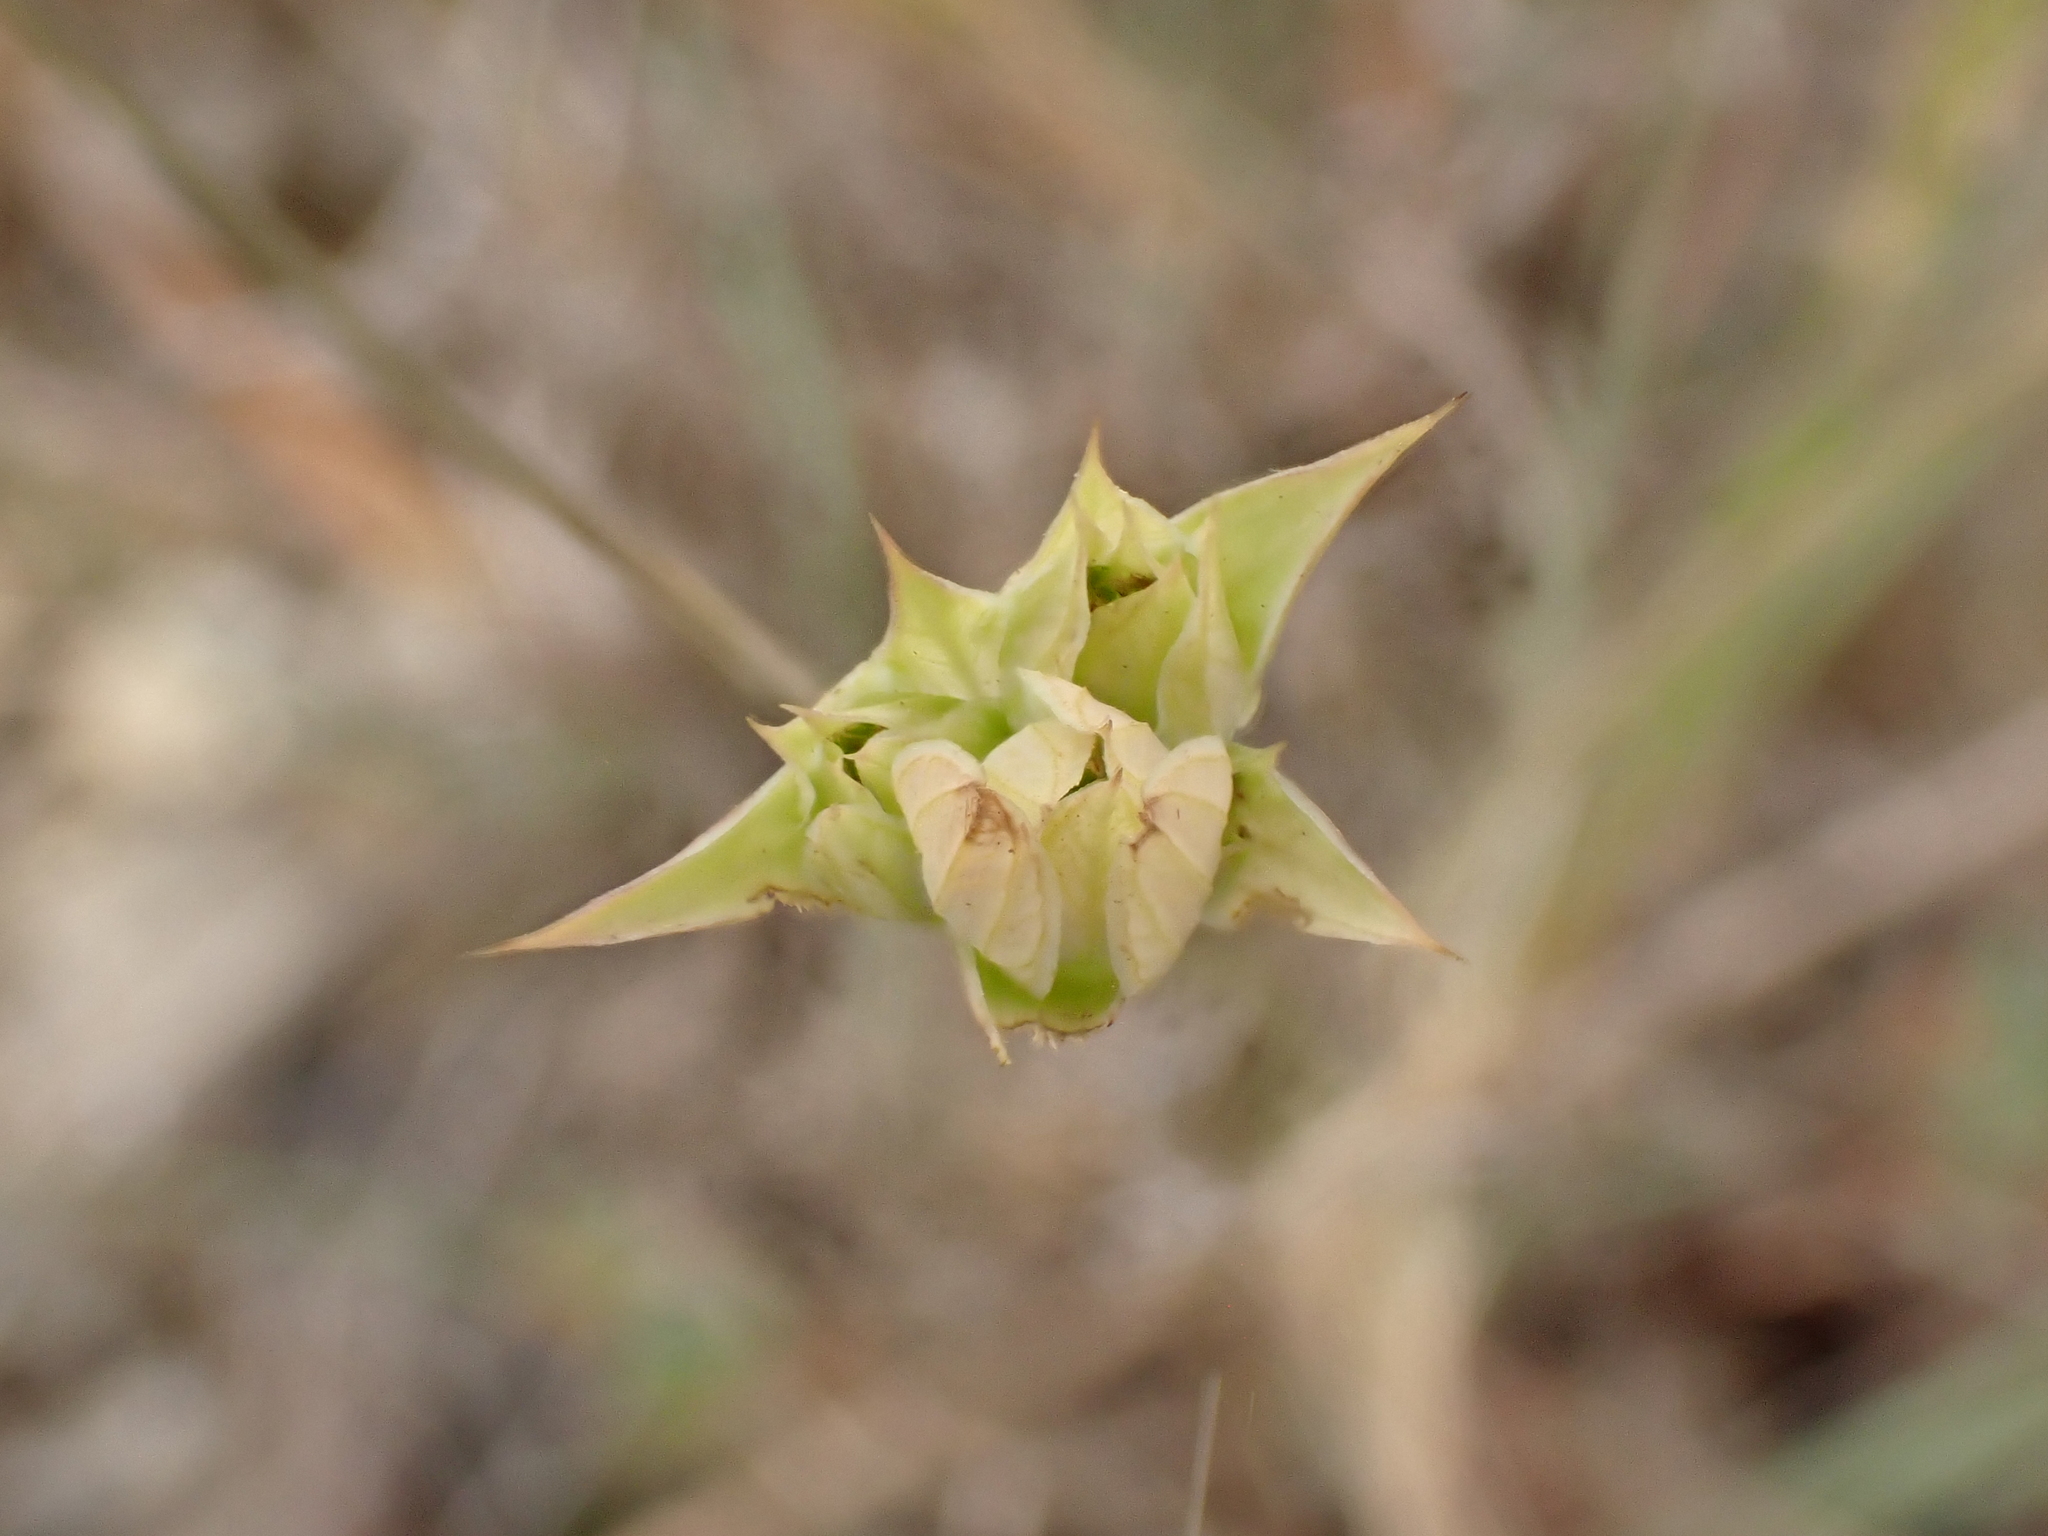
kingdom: Plantae
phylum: Tracheophyta
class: Magnoliopsida
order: Apiales
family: Apiaceae
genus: Bupleurum
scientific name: Bupleurum baldense
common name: Small hare's-ear
